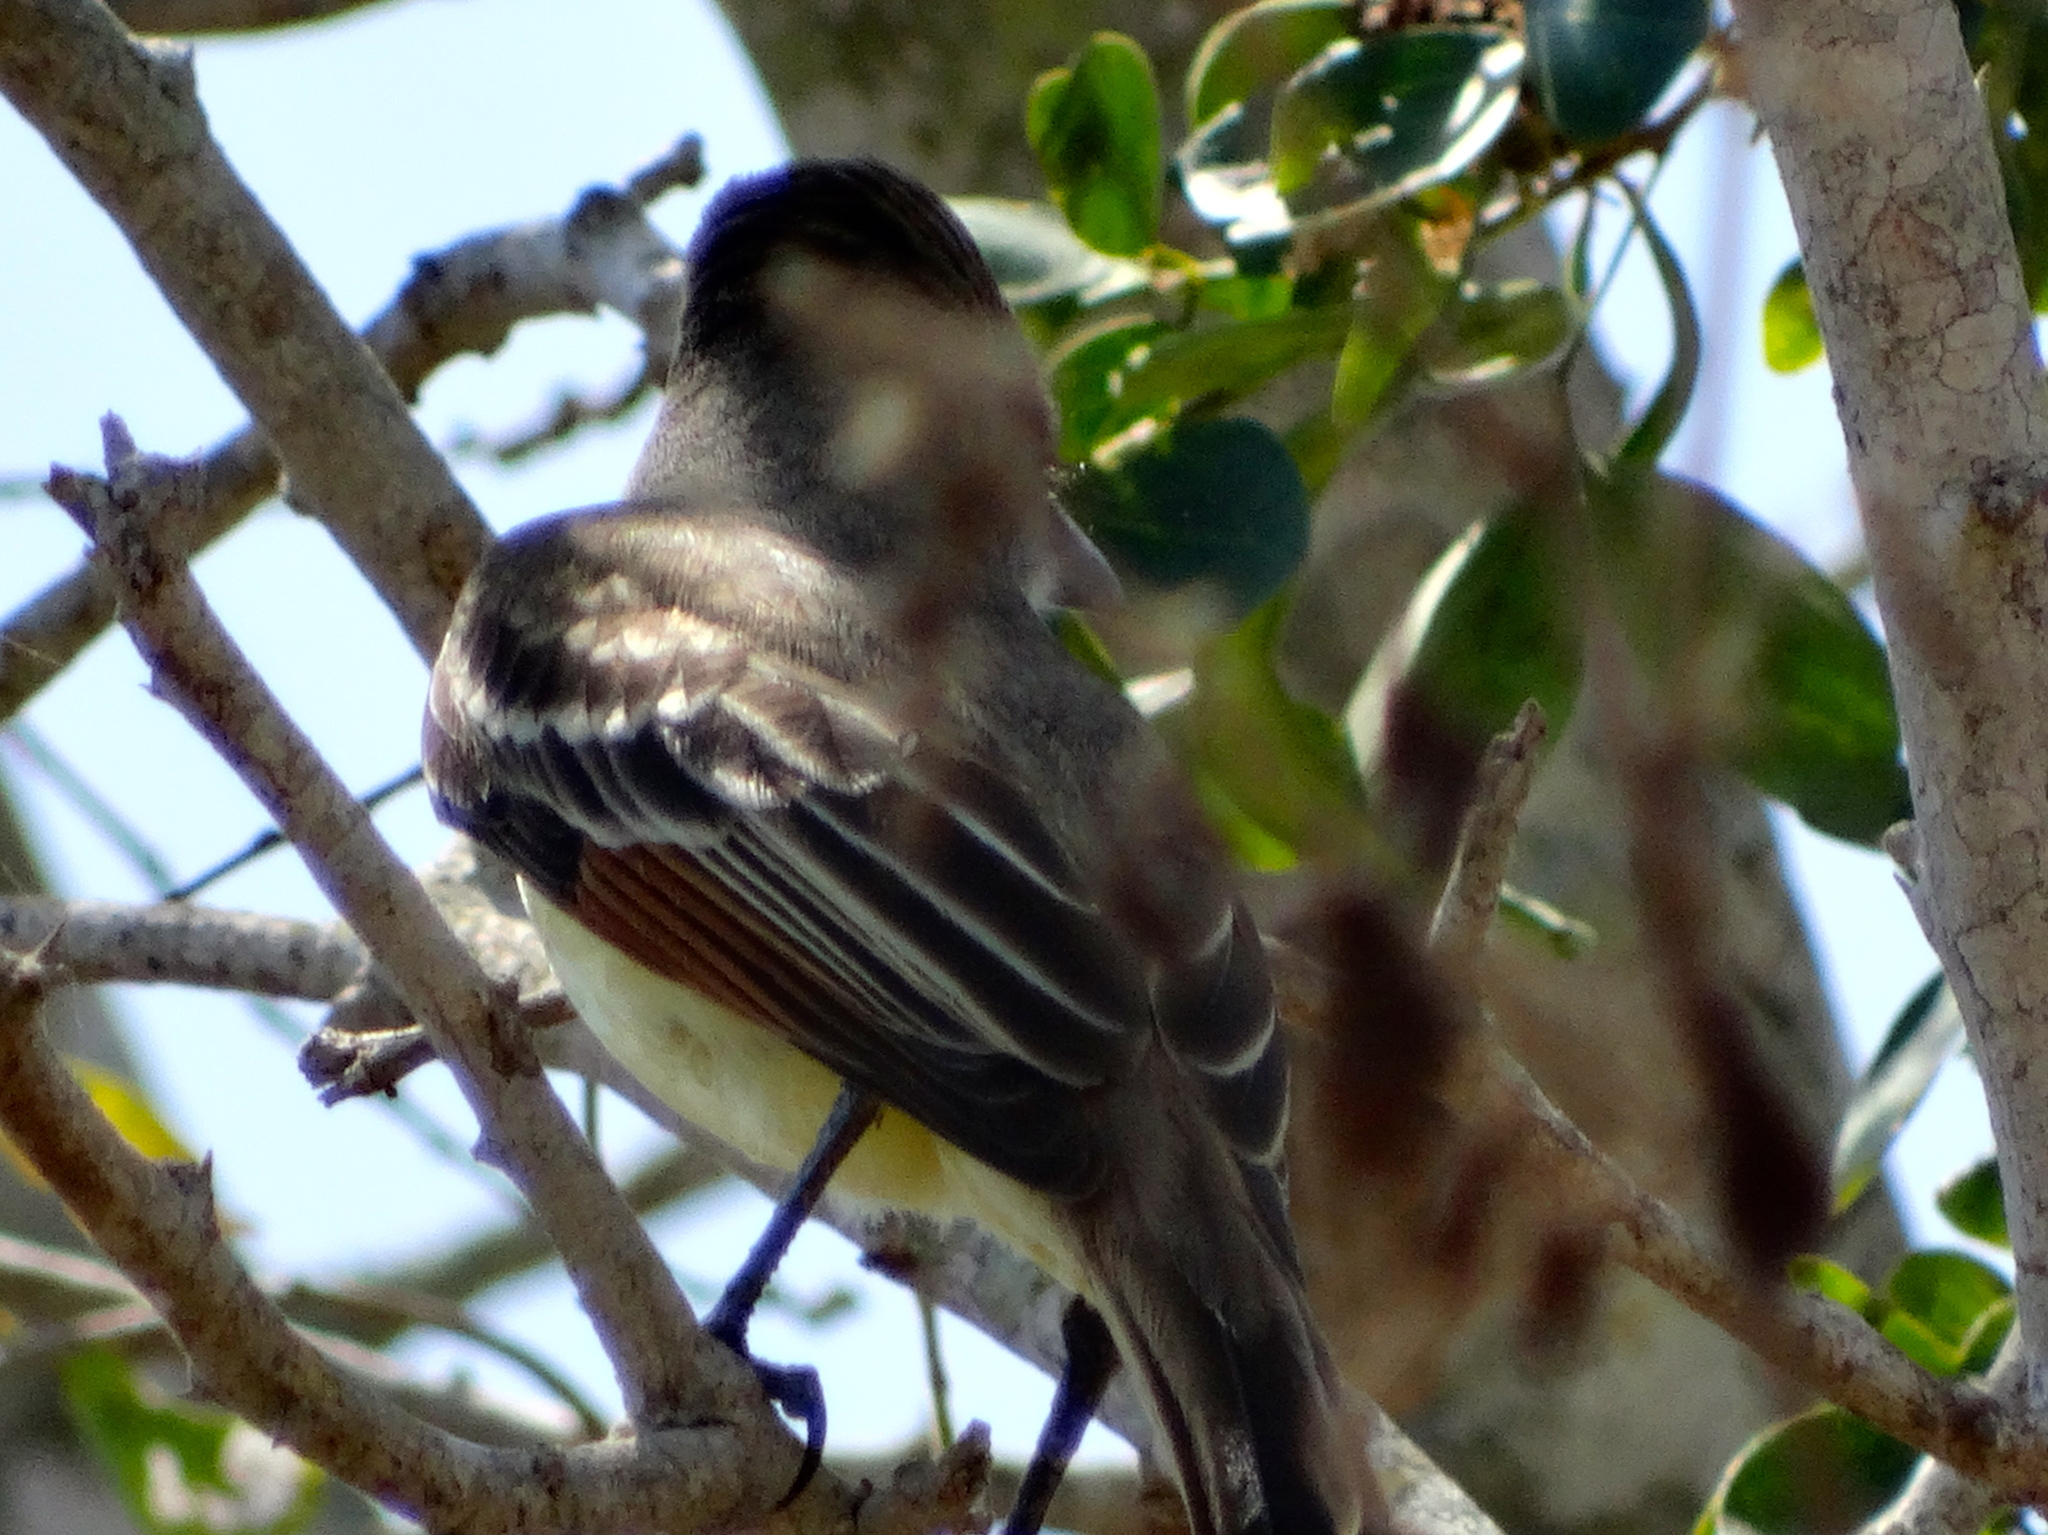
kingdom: Animalia
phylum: Chordata
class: Aves
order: Passeriformes
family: Tyrannidae
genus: Myiarchus
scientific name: Myiarchus
